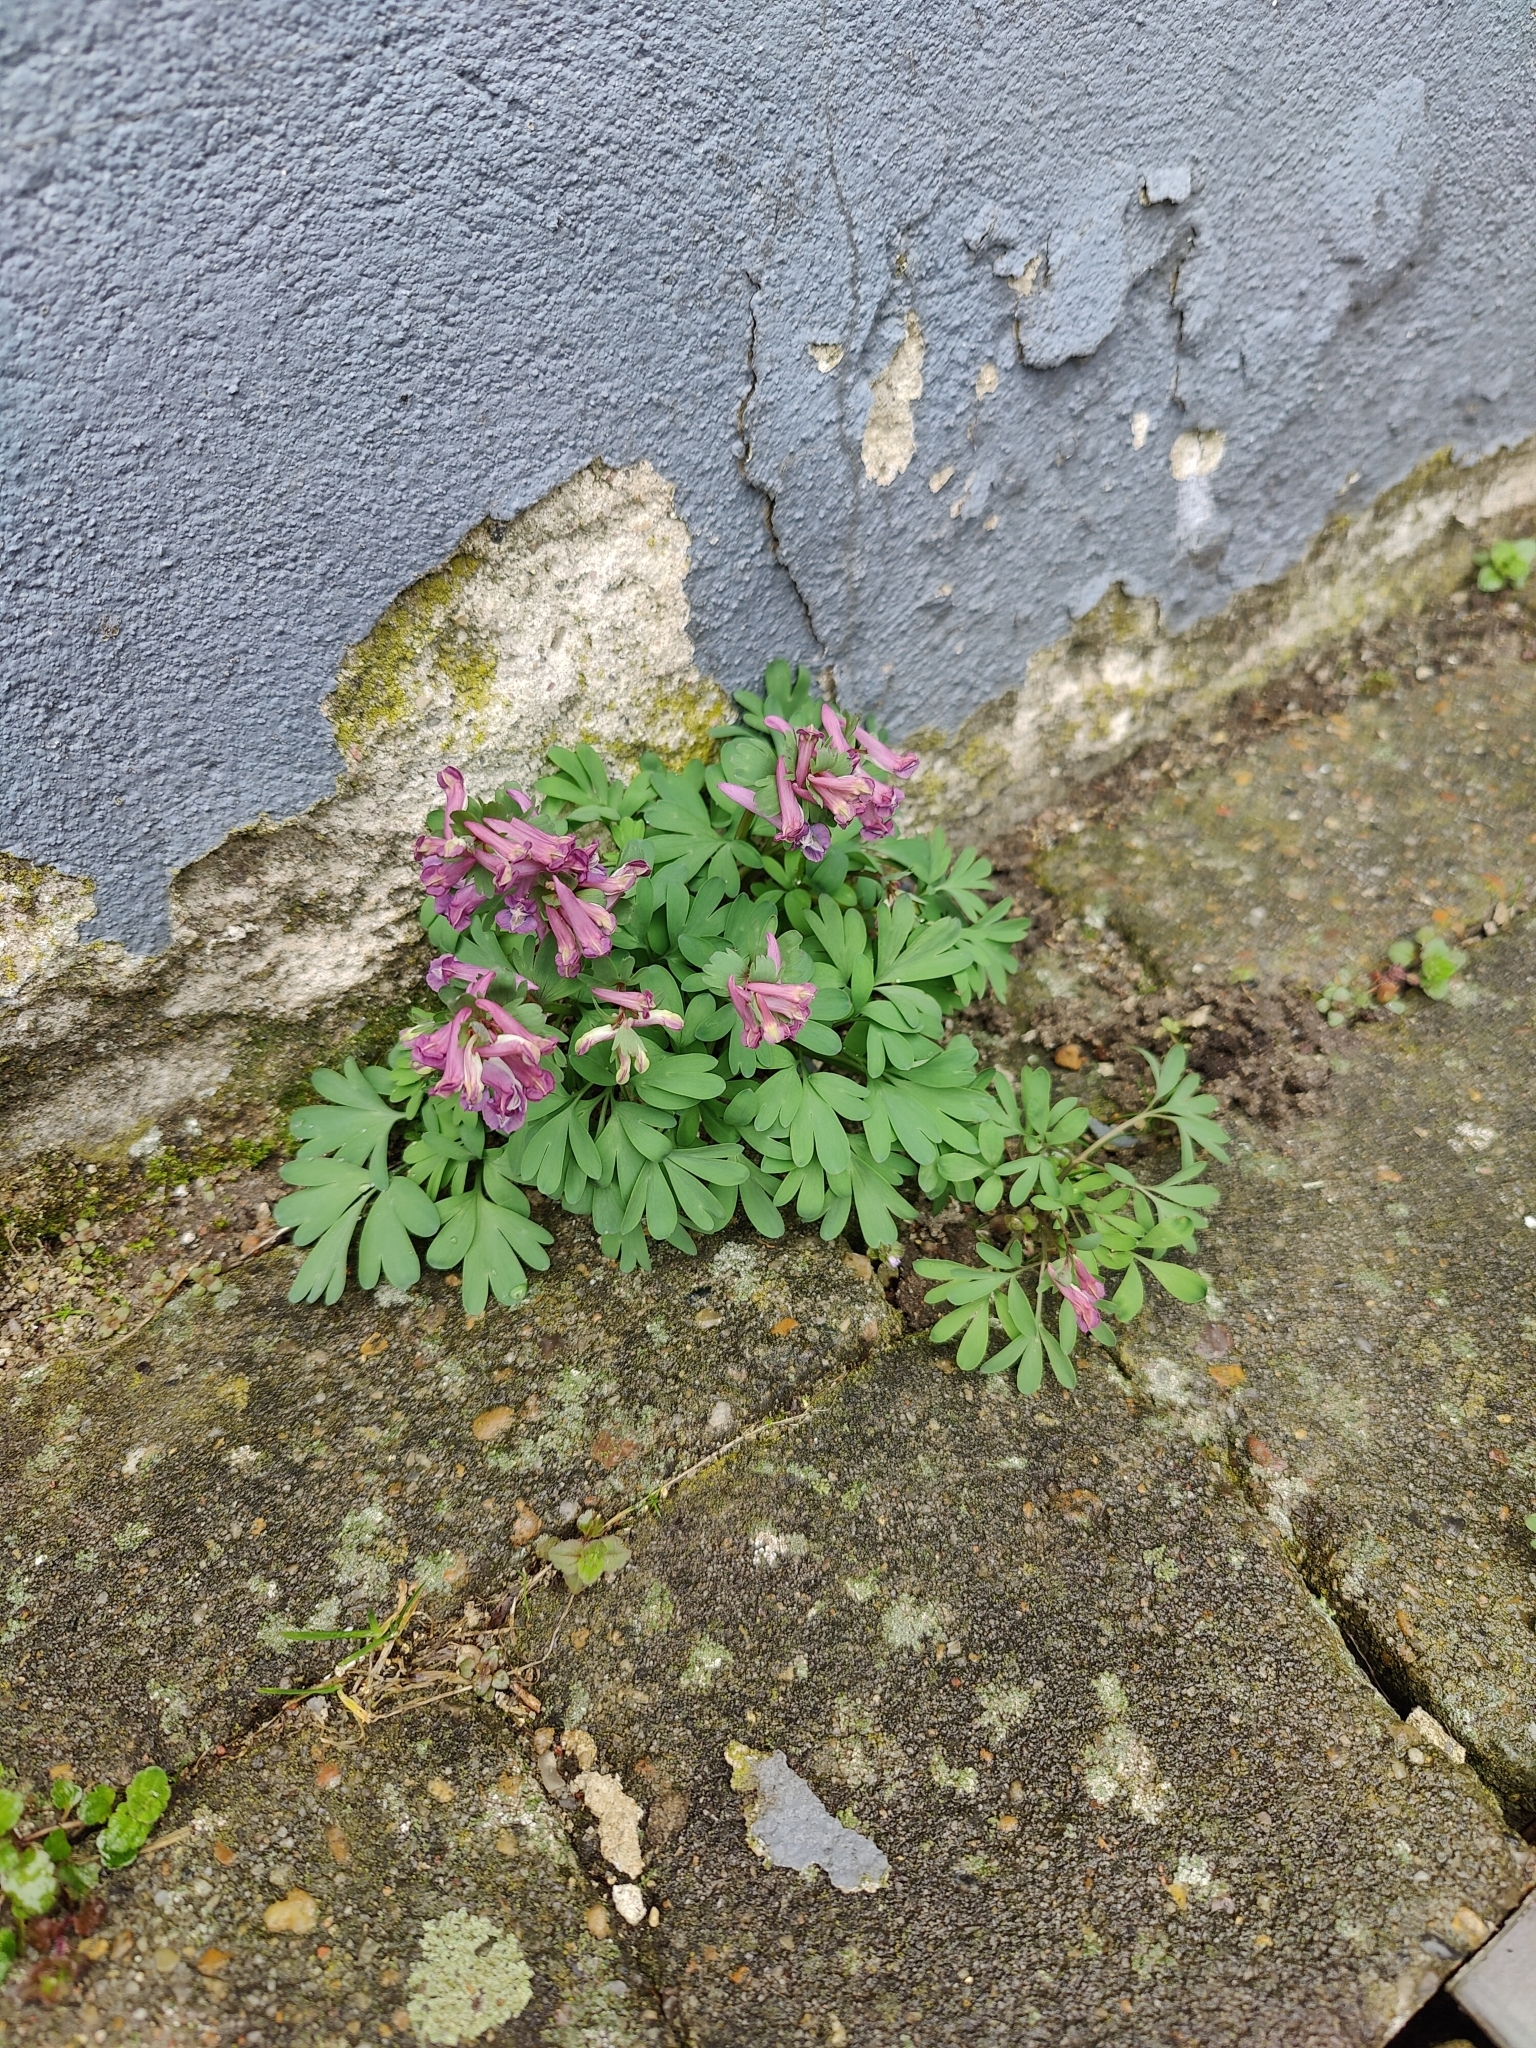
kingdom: Plantae
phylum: Tracheophyta
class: Magnoliopsida
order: Ranunculales
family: Papaveraceae
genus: Corydalis
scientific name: Corydalis solida
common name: Bird-in-a-bush
